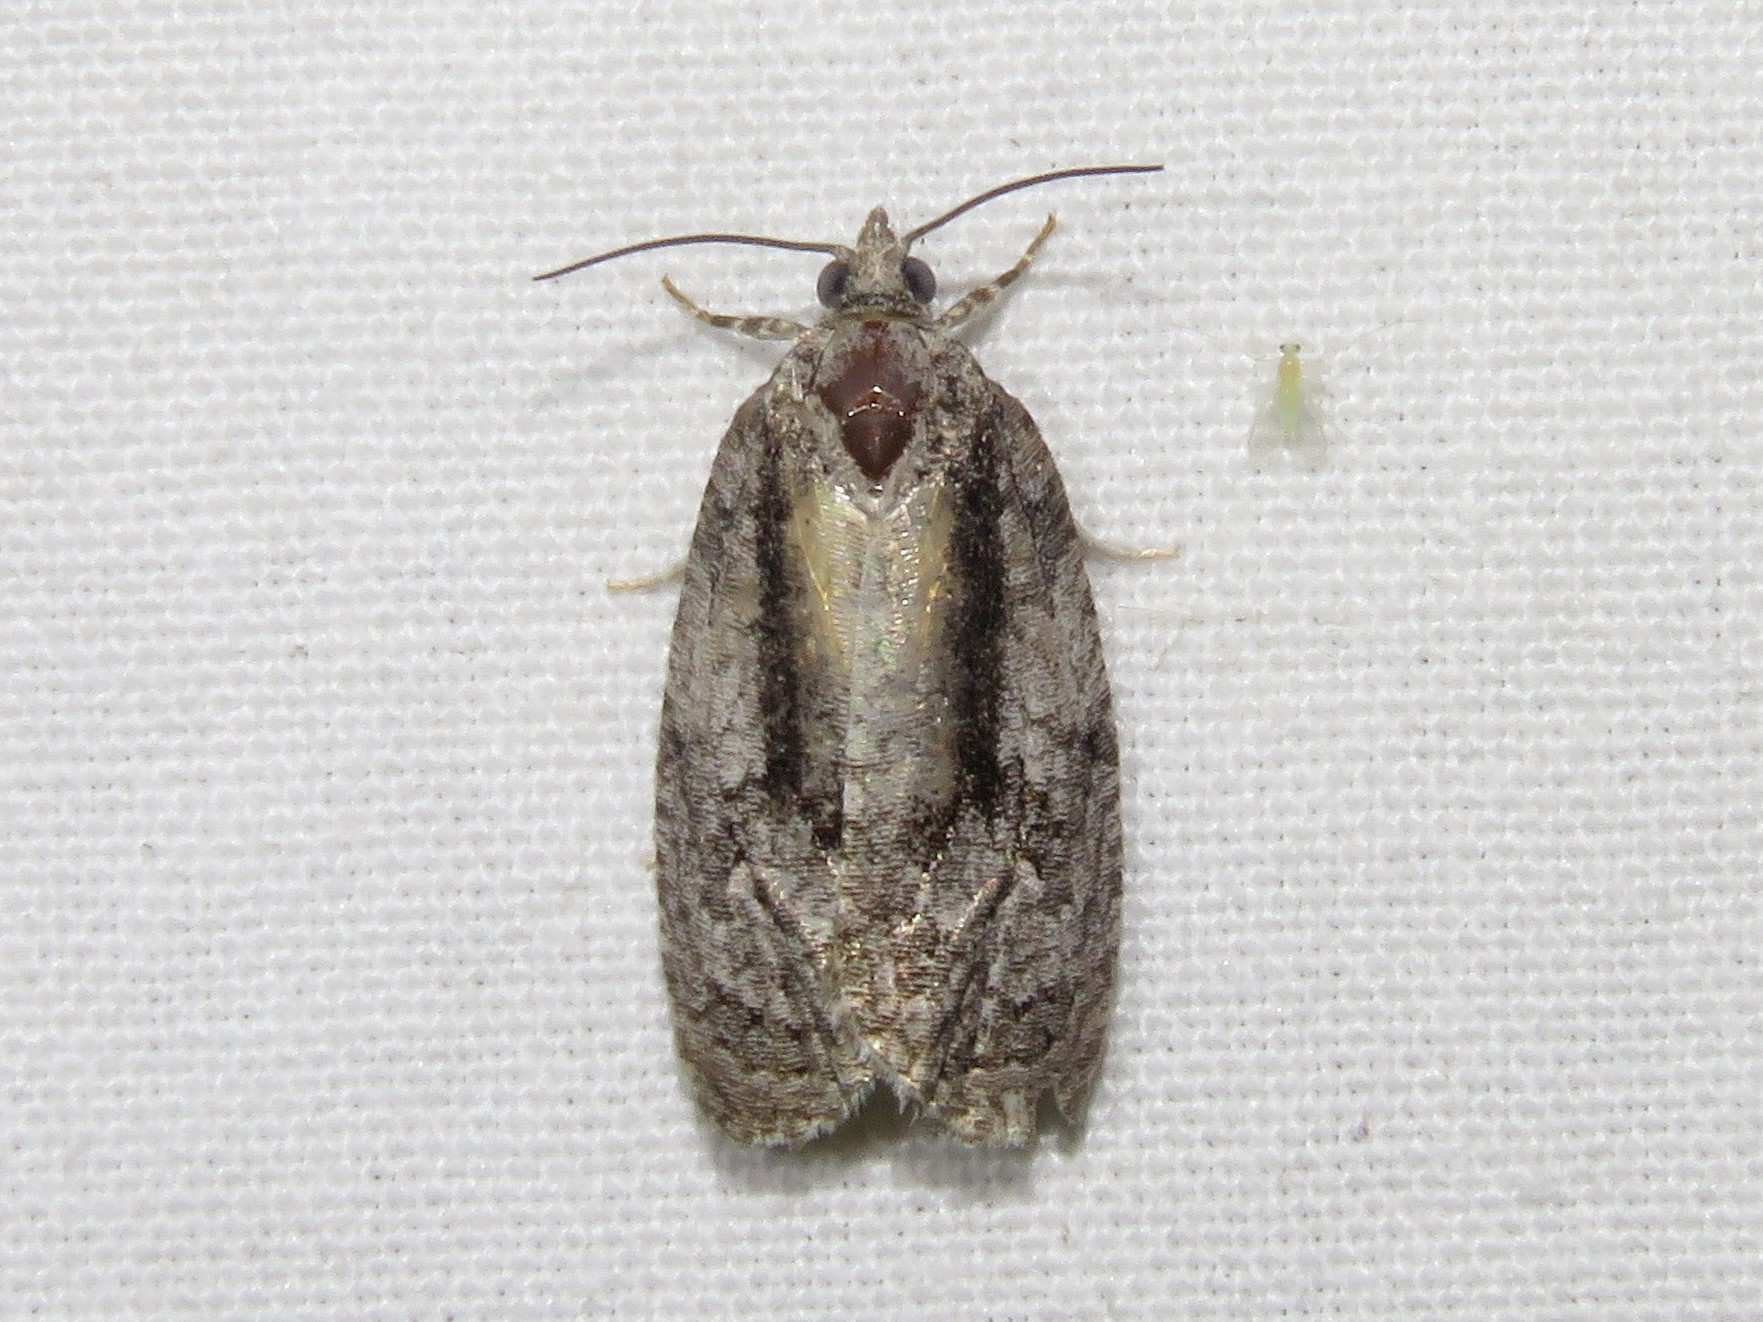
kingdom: Animalia
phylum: Arthropoda
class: Insecta
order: Lepidoptera
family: Tortricidae
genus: Apotomis
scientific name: Apotomis removana
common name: Green aspen leafroller
